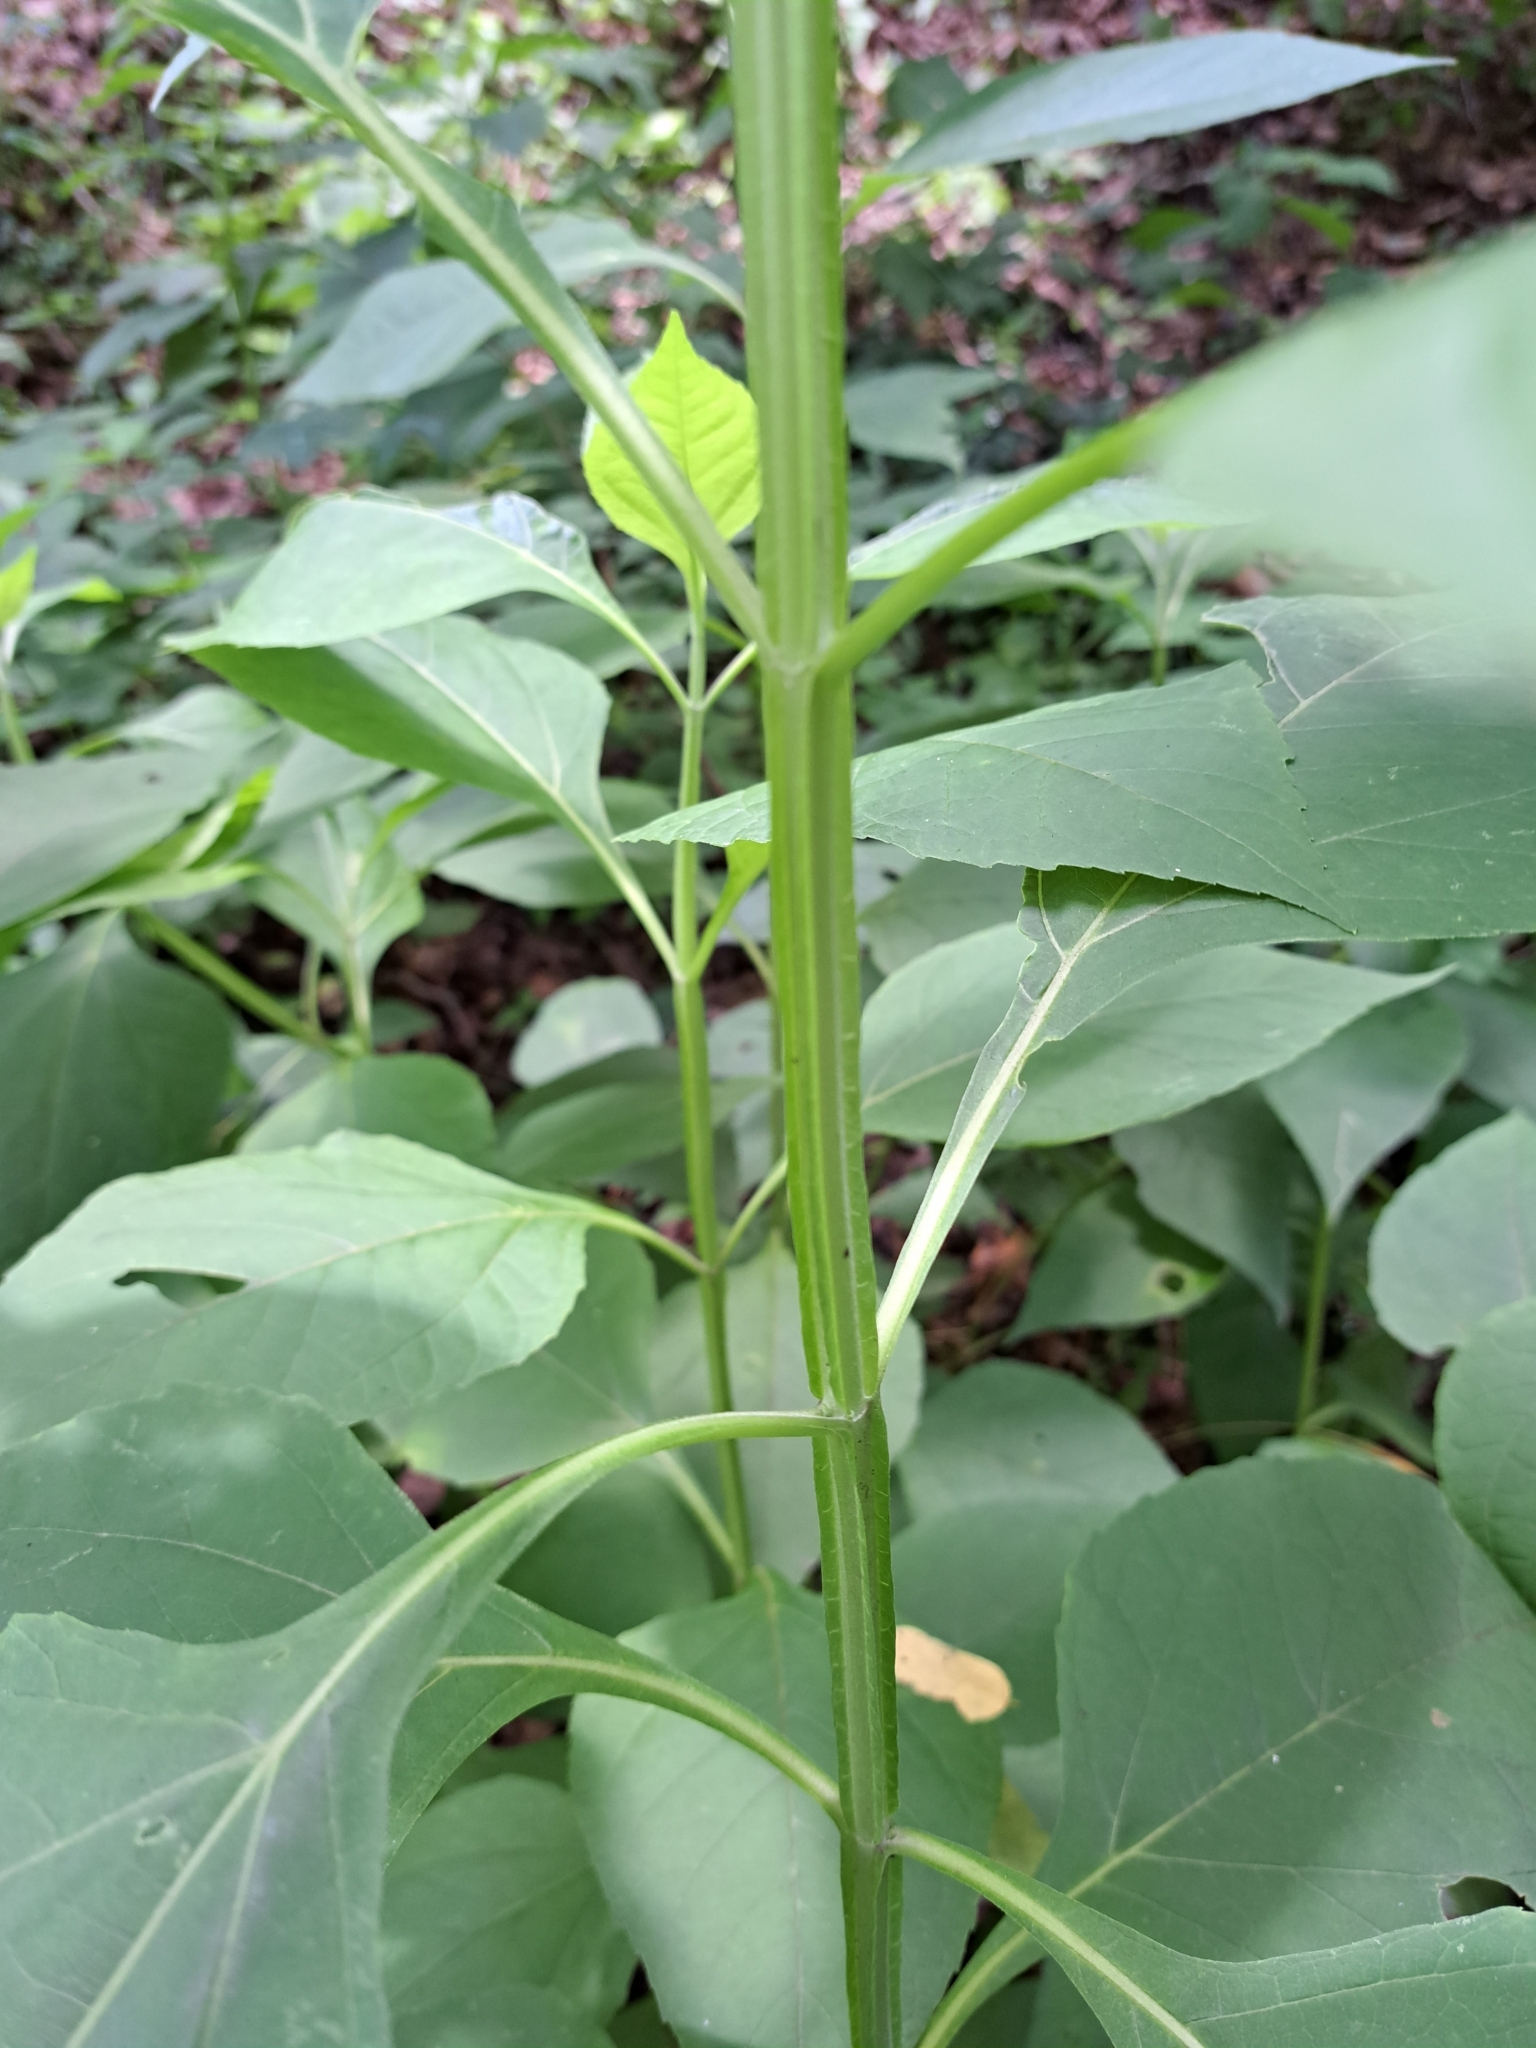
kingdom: Plantae
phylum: Tracheophyta
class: Magnoliopsida
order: Asterales
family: Asteraceae
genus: Verbesina
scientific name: Verbesina occidentalis
